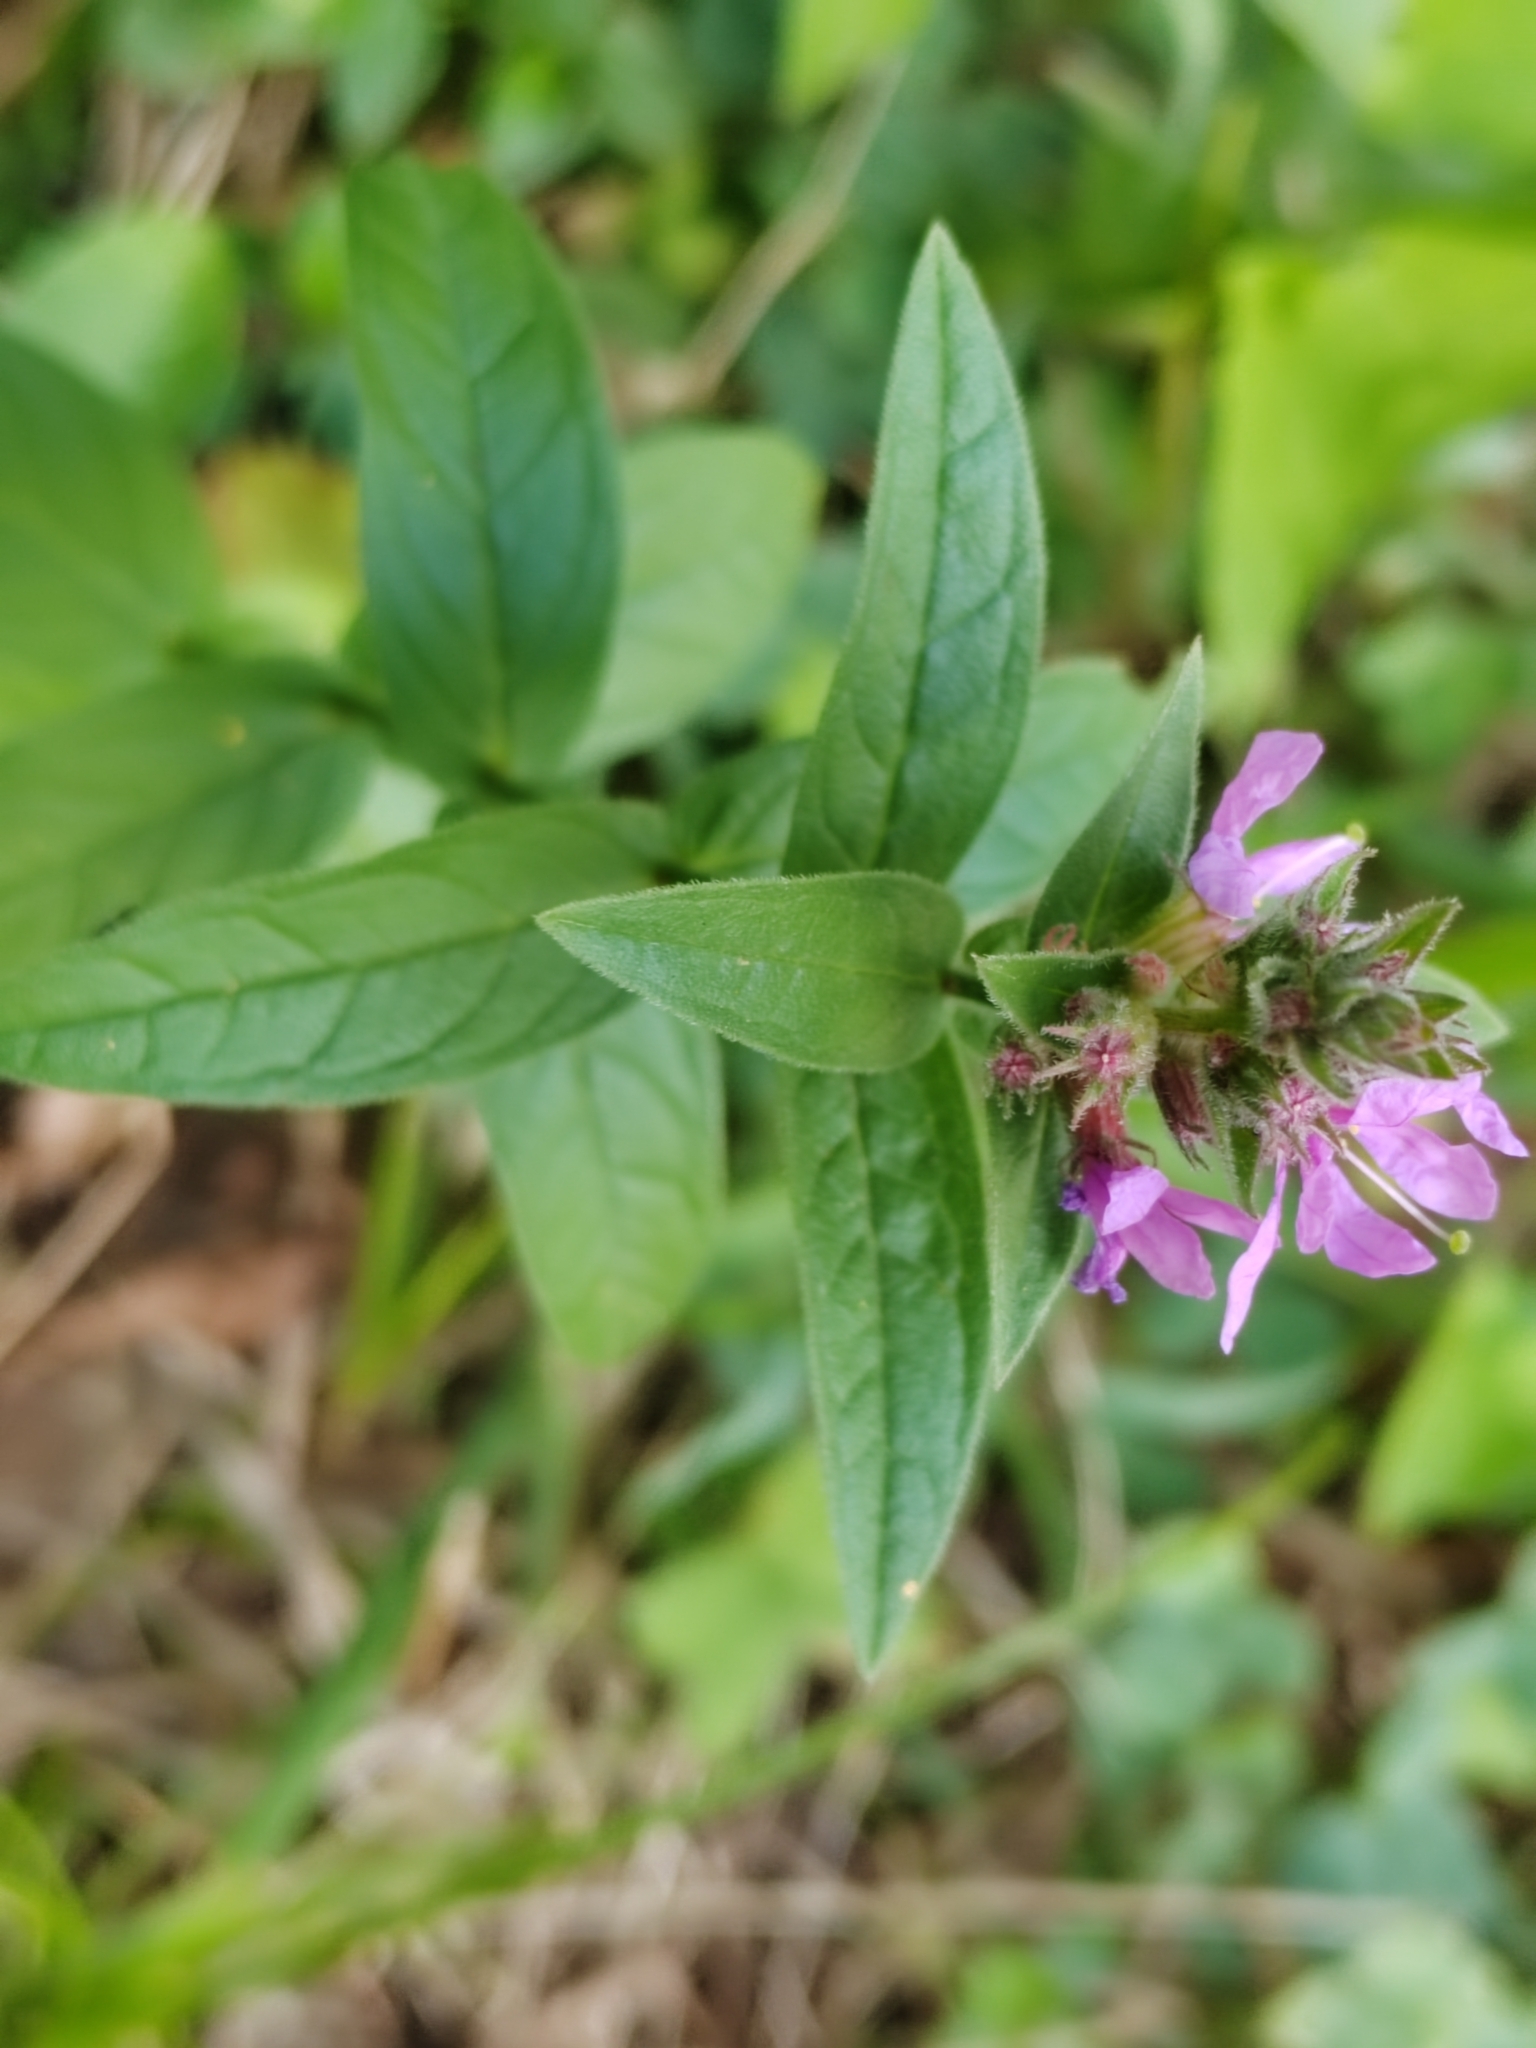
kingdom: Plantae
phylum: Tracheophyta
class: Magnoliopsida
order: Myrtales
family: Lythraceae
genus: Lythrum
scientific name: Lythrum salicaria
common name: Purple loosestrife
